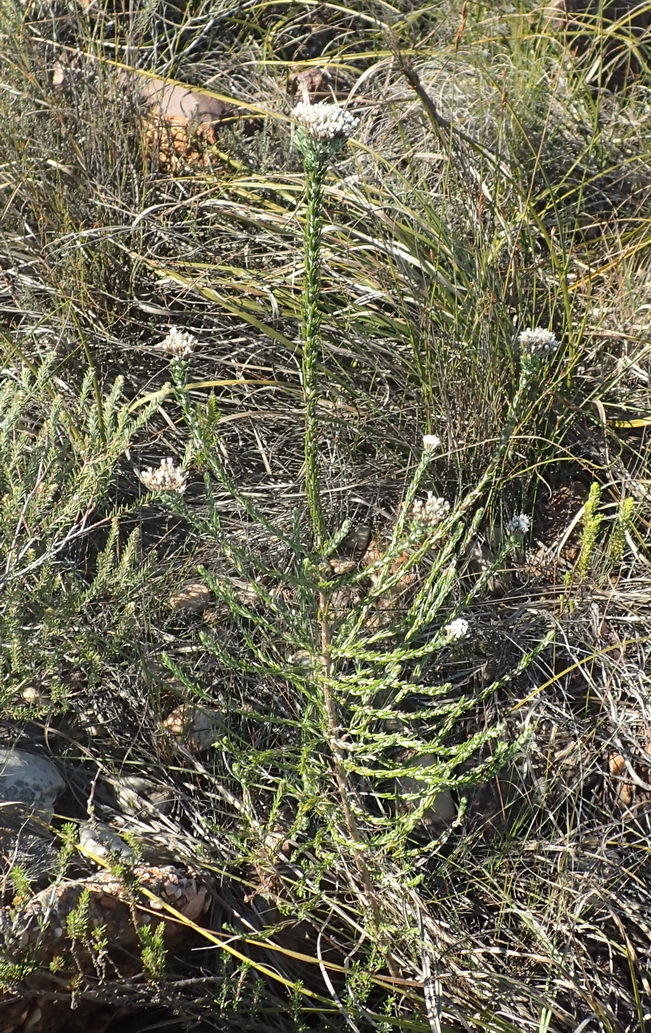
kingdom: Plantae
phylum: Tracheophyta
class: Magnoliopsida
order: Asterales
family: Asteraceae
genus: Metalasia
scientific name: Metalasia pungens
